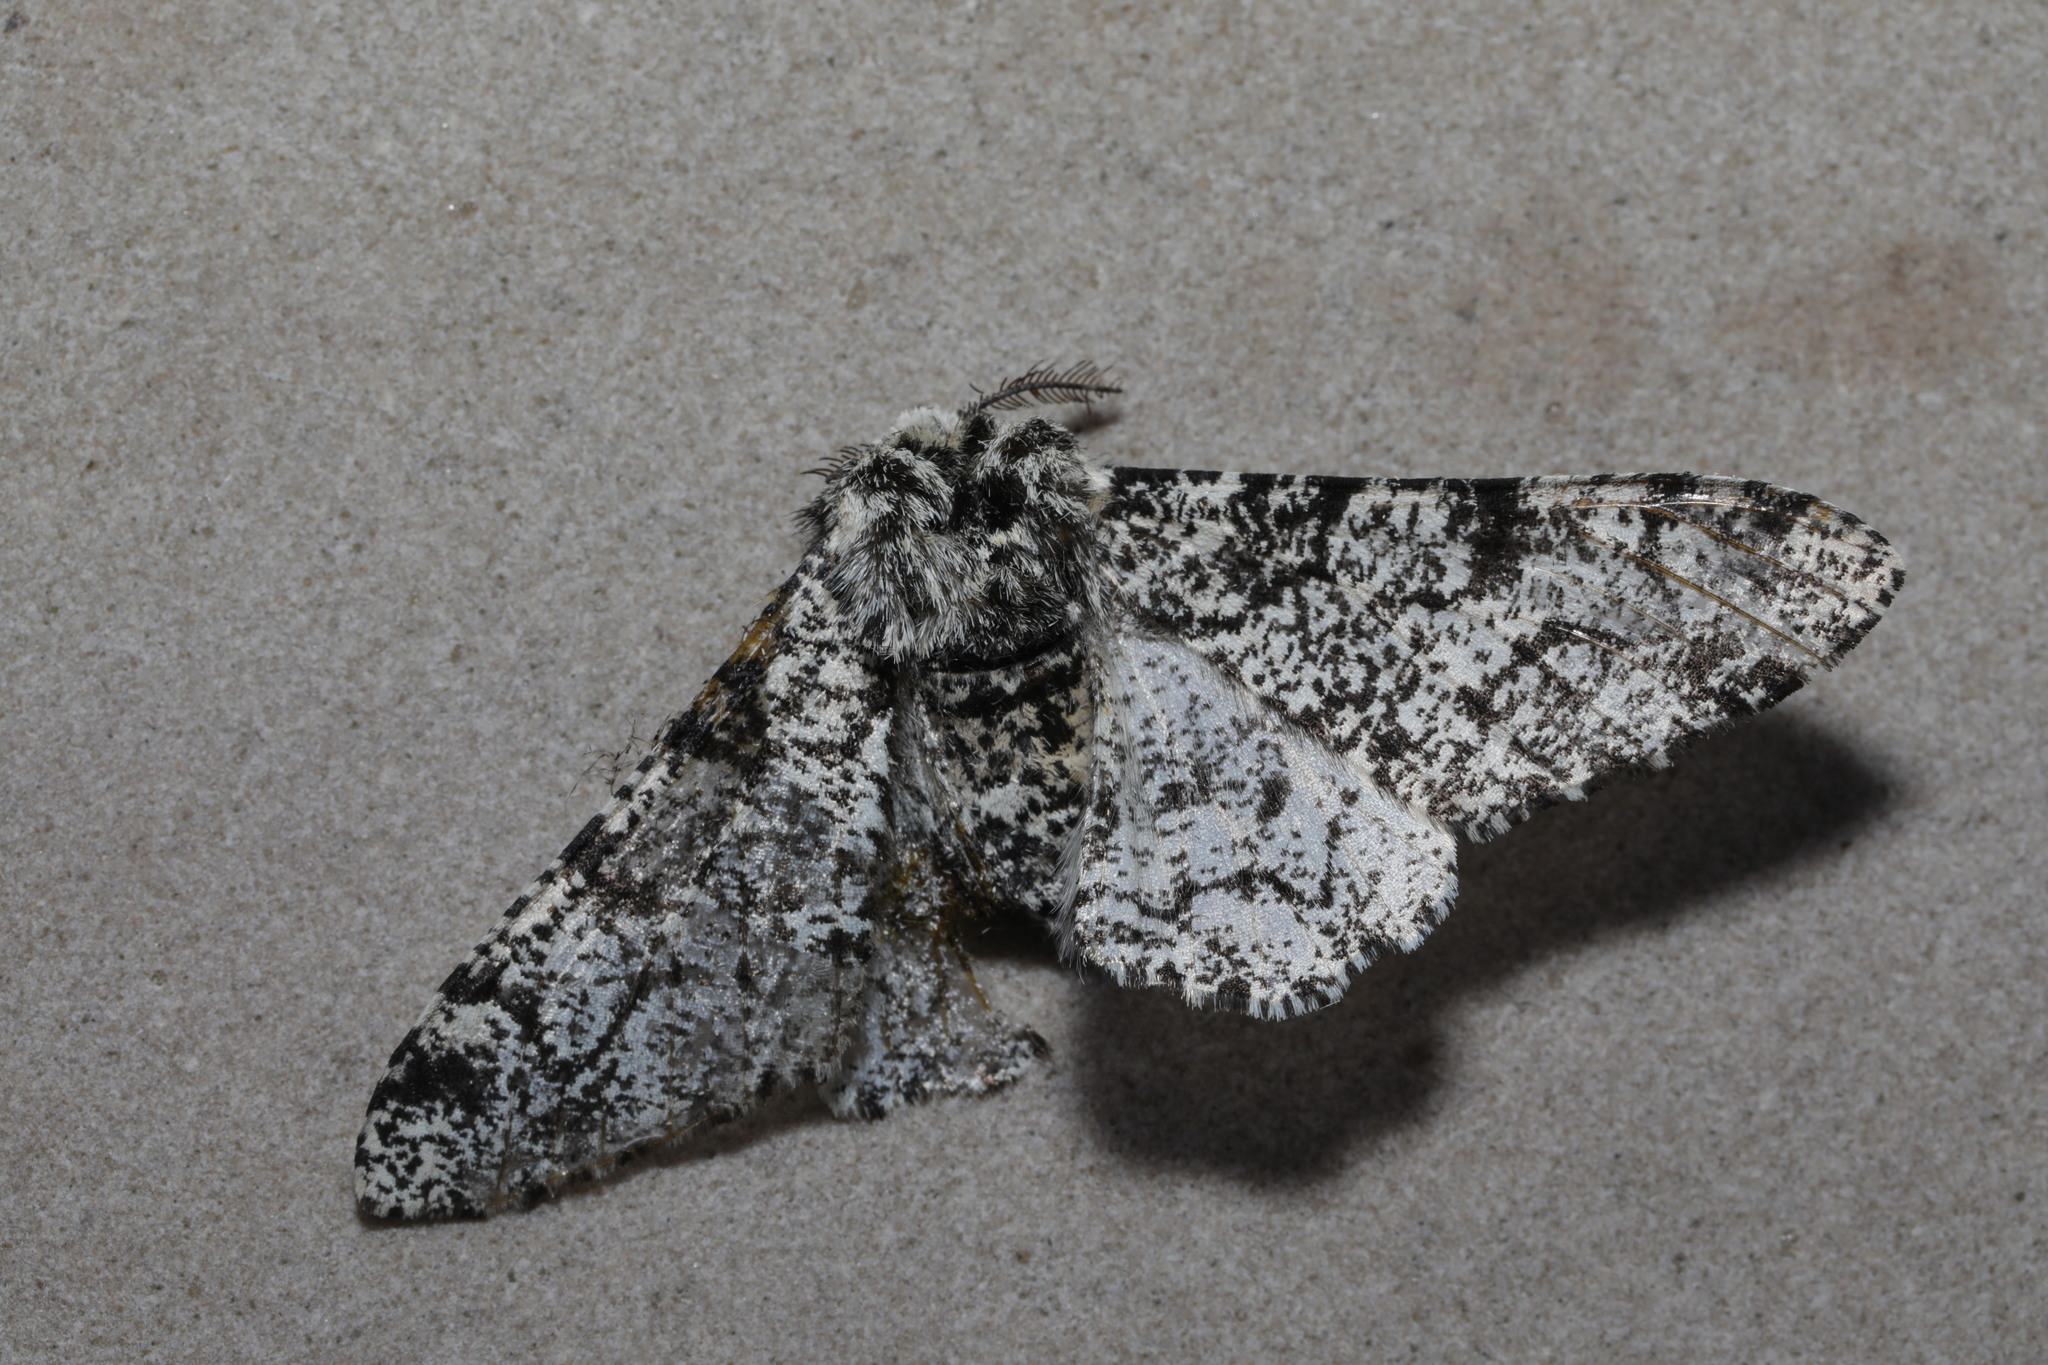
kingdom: Animalia
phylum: Arthropoda
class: Insecta
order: Lepidoptera
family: Geometridae
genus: Biston
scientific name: Biston betularia
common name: Peppered moth
